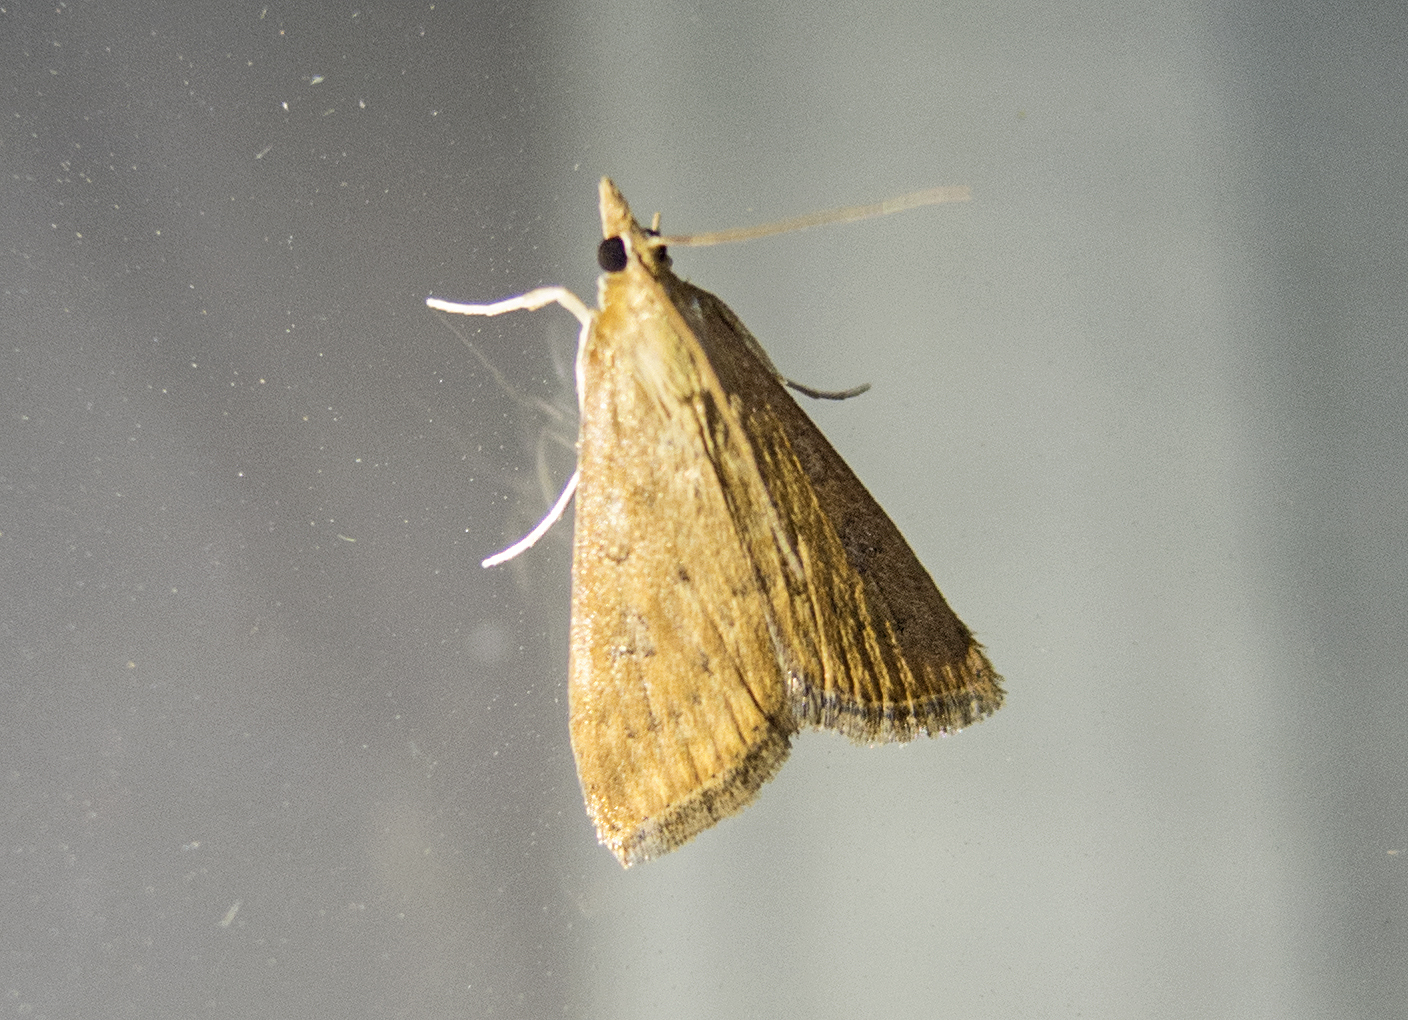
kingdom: Animalia
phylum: Arthropoda
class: Insecta
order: Lepidoptera
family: Crambidae
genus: Udea
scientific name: Udea ferrugalis
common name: Rusty dot
